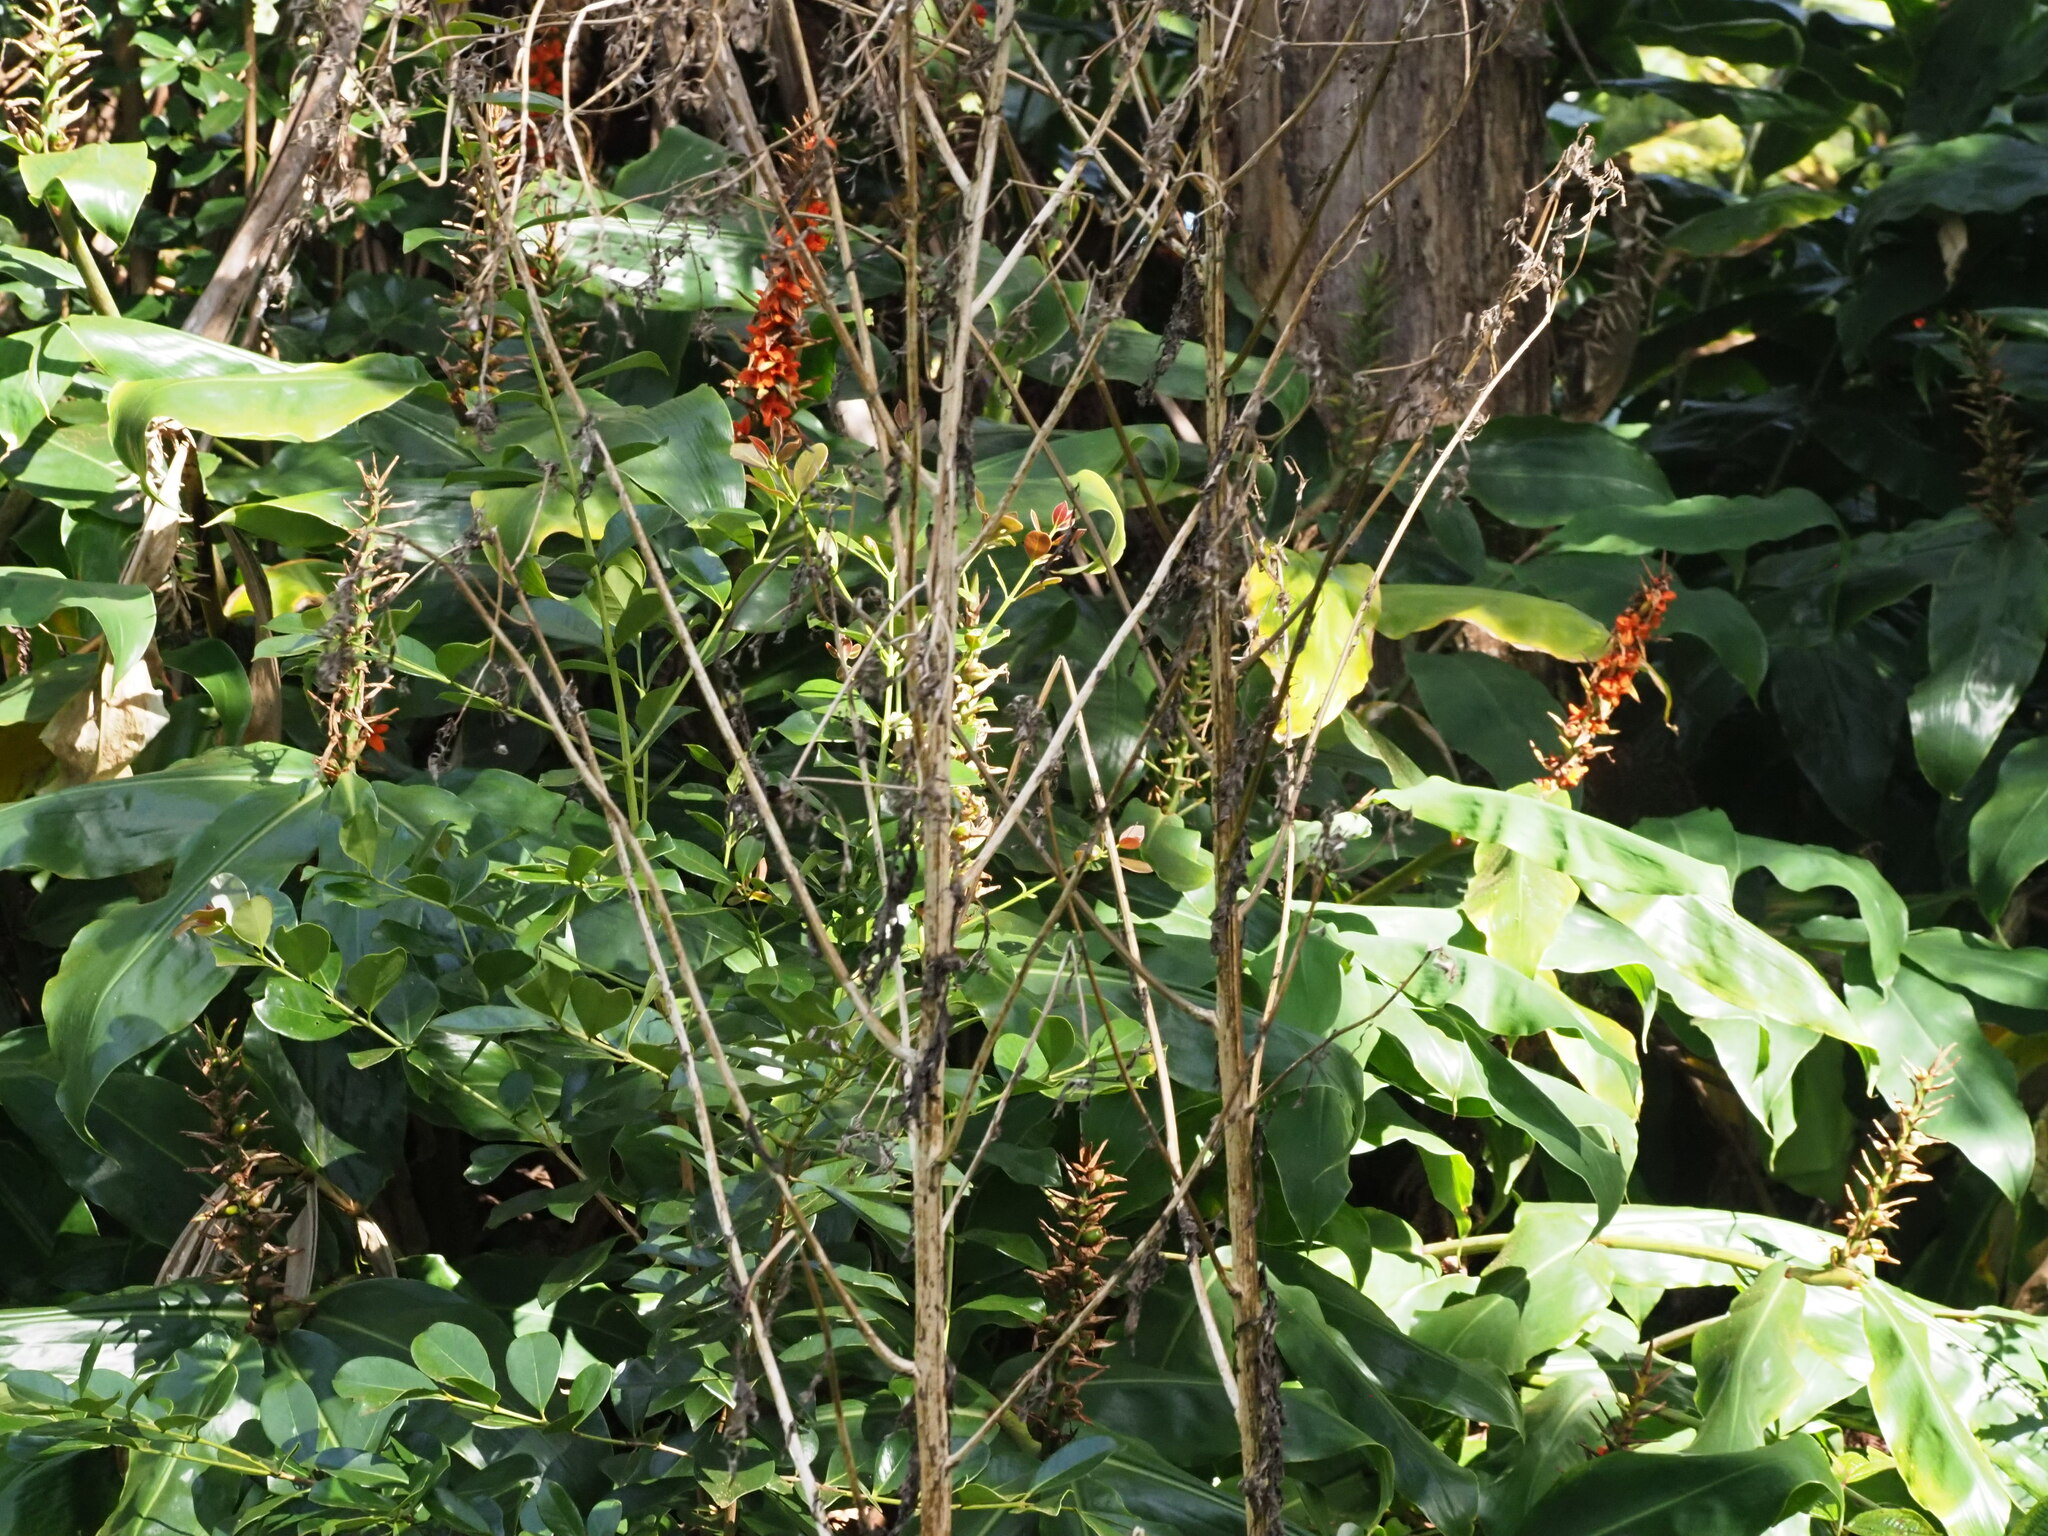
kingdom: Plantae
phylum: Tracheophyta
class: Liliopsida
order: Zingiberales
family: Zingiberaceae
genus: Hedychium
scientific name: Hedychium gardnerianum
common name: Himalayan ginger
